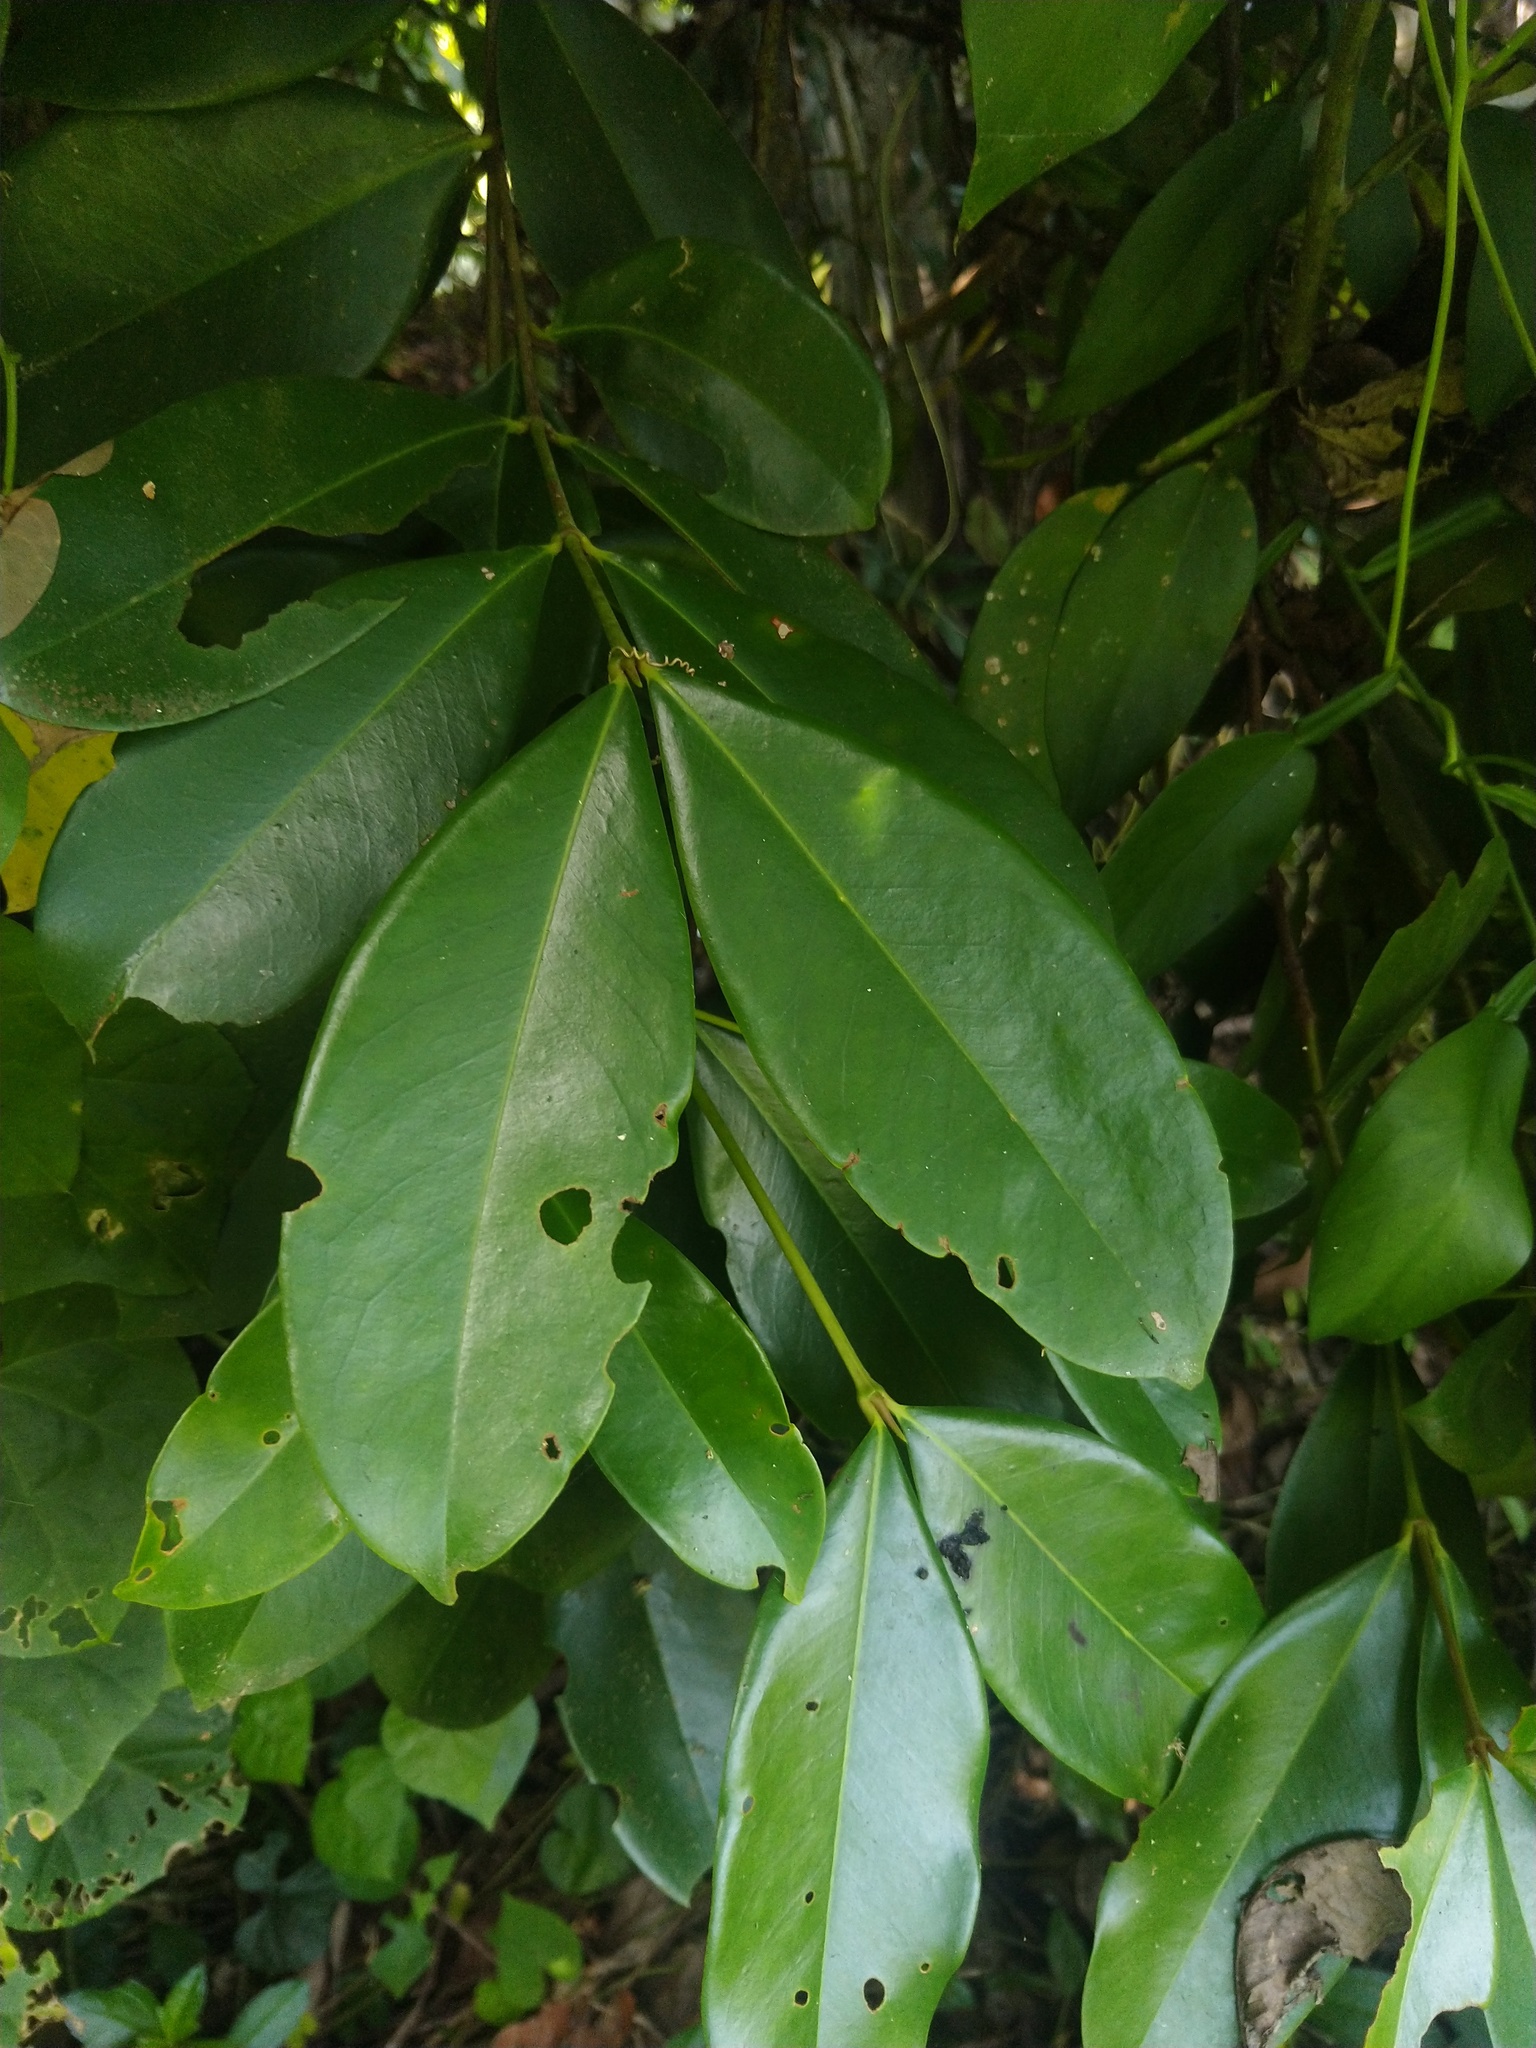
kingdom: Plantae
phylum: Tracheophyta
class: Magnoliopsida
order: Malpighiales
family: Rhizophoraceae
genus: Carallia
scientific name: Carallia brachiata
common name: Carallawood
